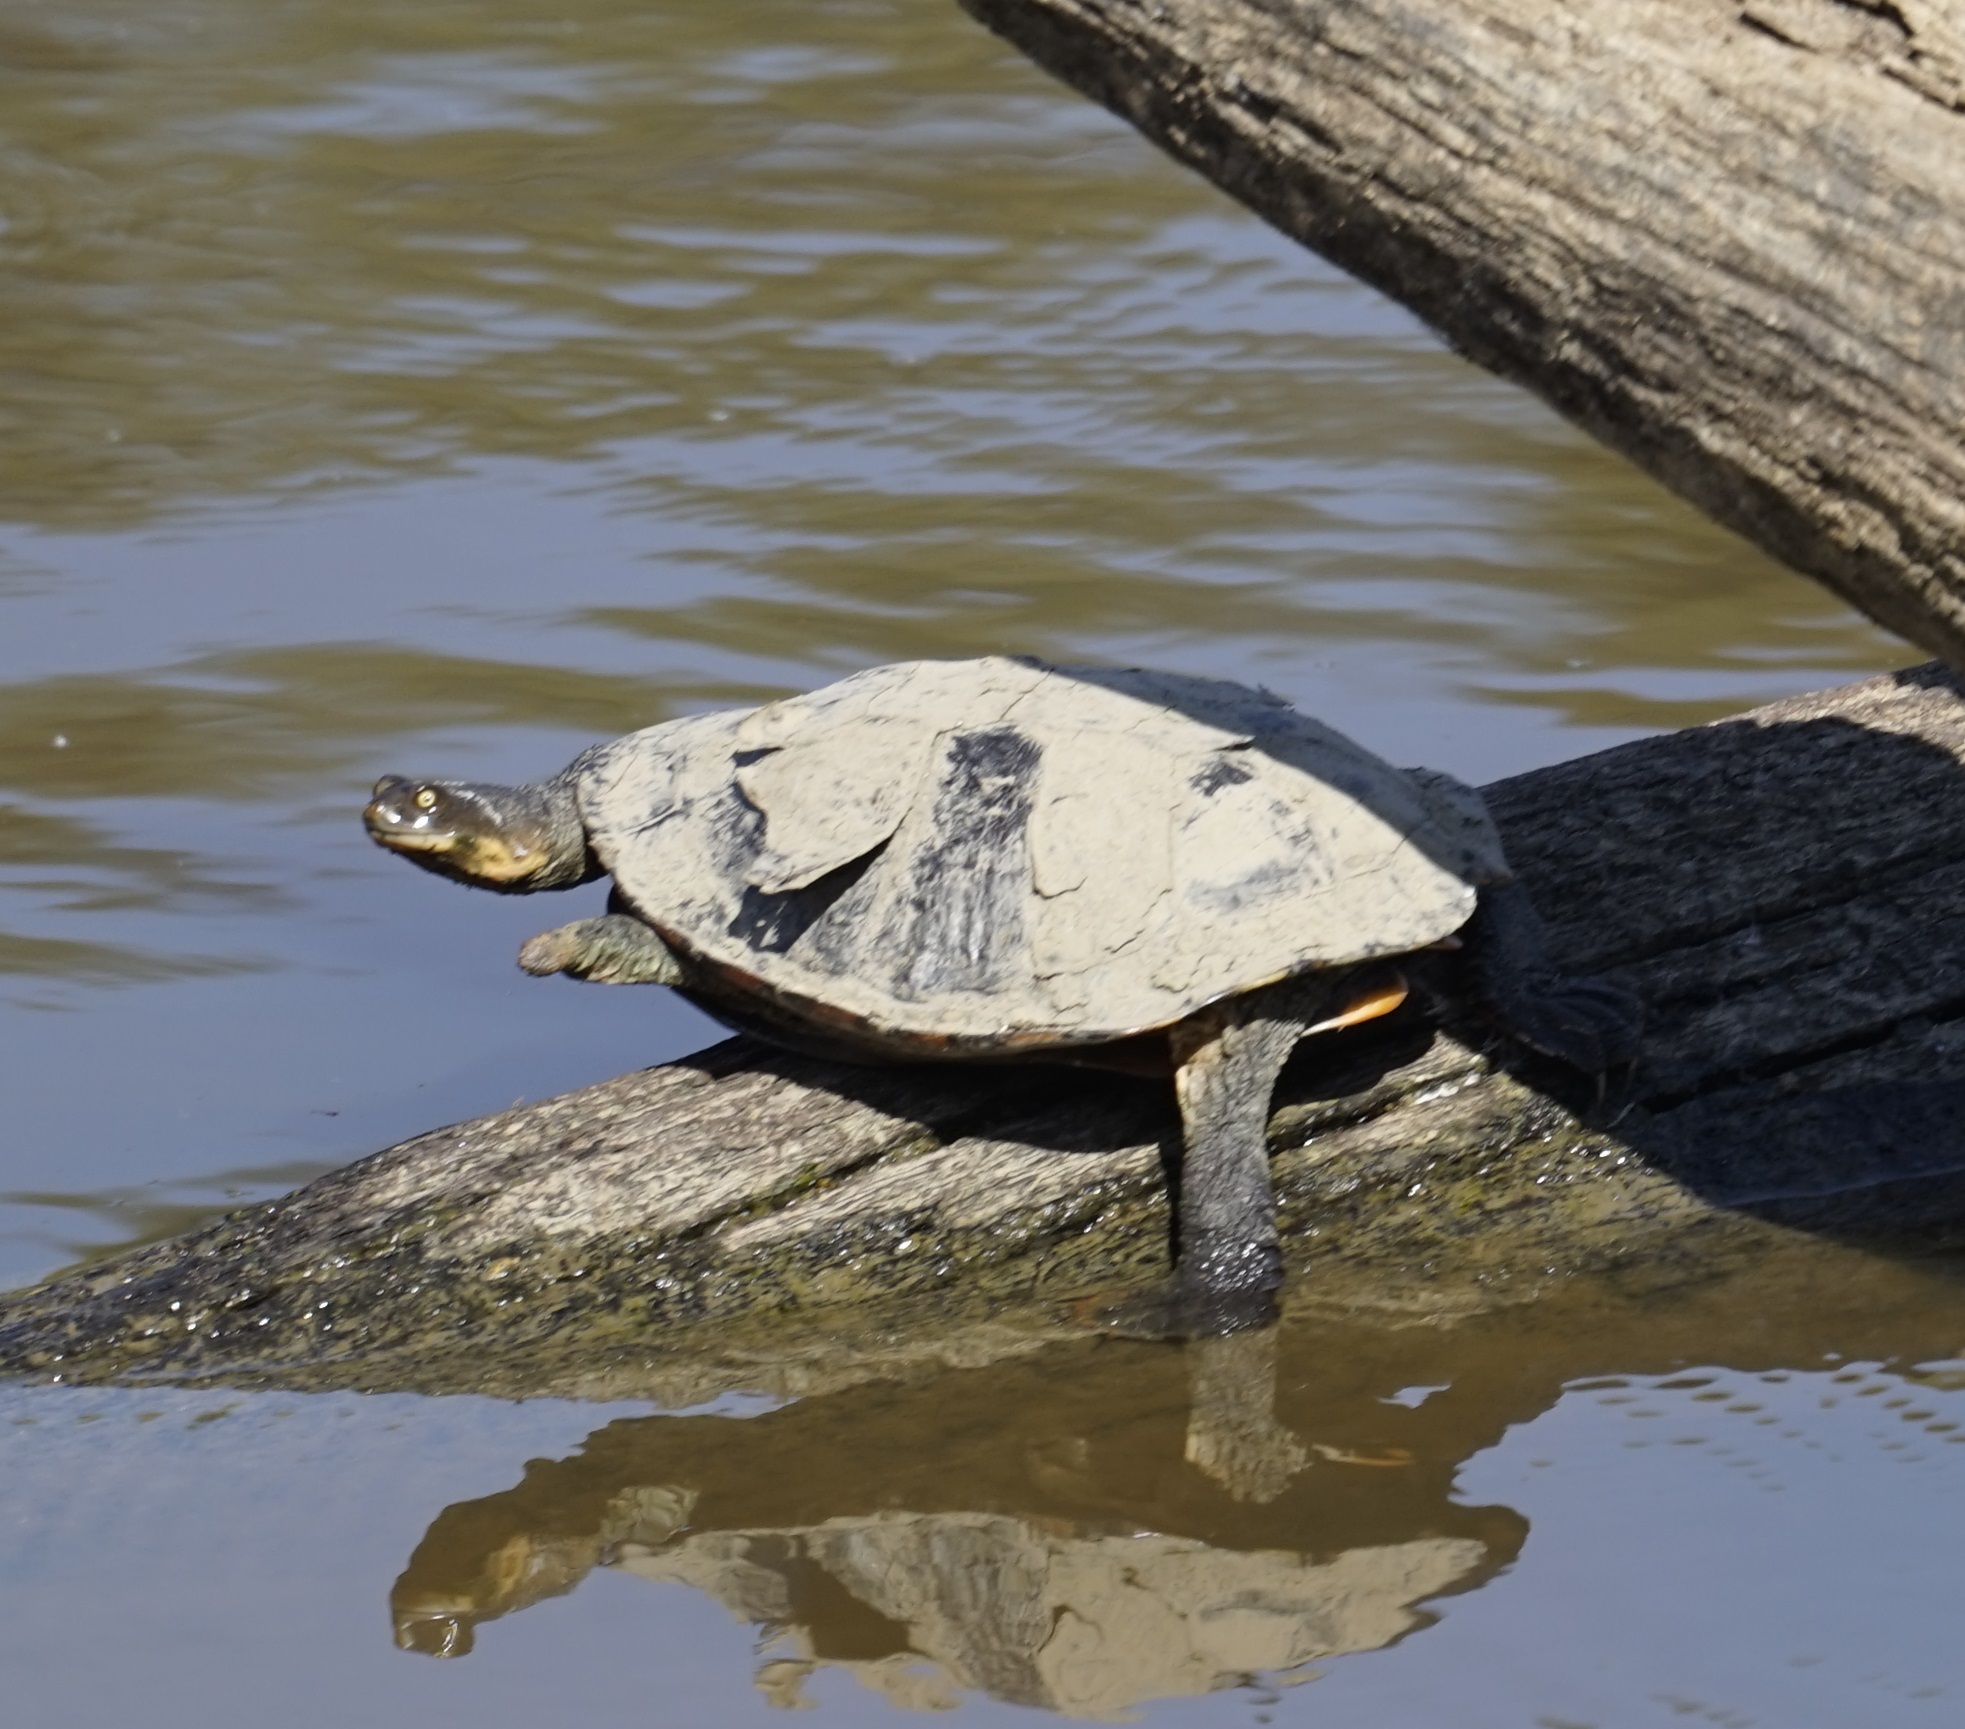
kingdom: Animalia
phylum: Chordata
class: Testudines
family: Chelidae
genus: Chelodina
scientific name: Chelodina longicollis
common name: Eastern snake-necked turtle
